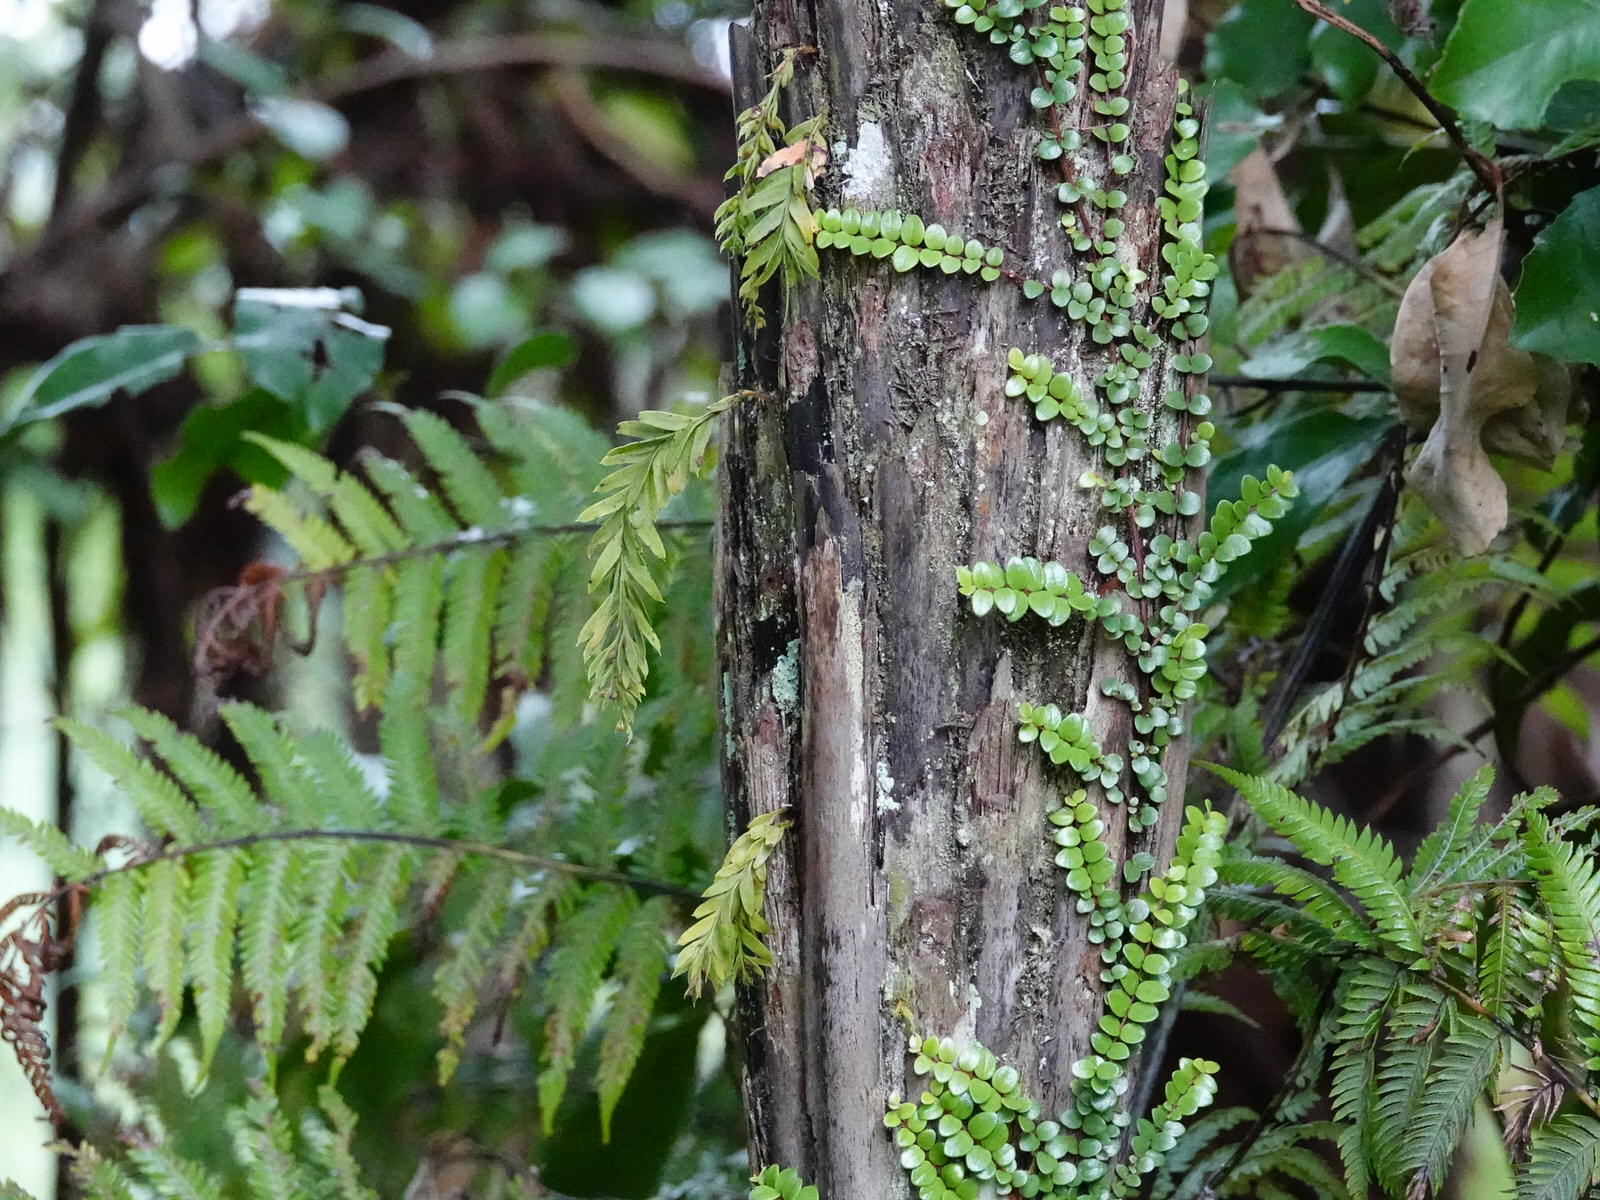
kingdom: Plantae
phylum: Tracheophyta
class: Polypodiopsida
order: Psilotales
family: Psilotaceae
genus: Tmesipteris
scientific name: Tmesipteris elongata
